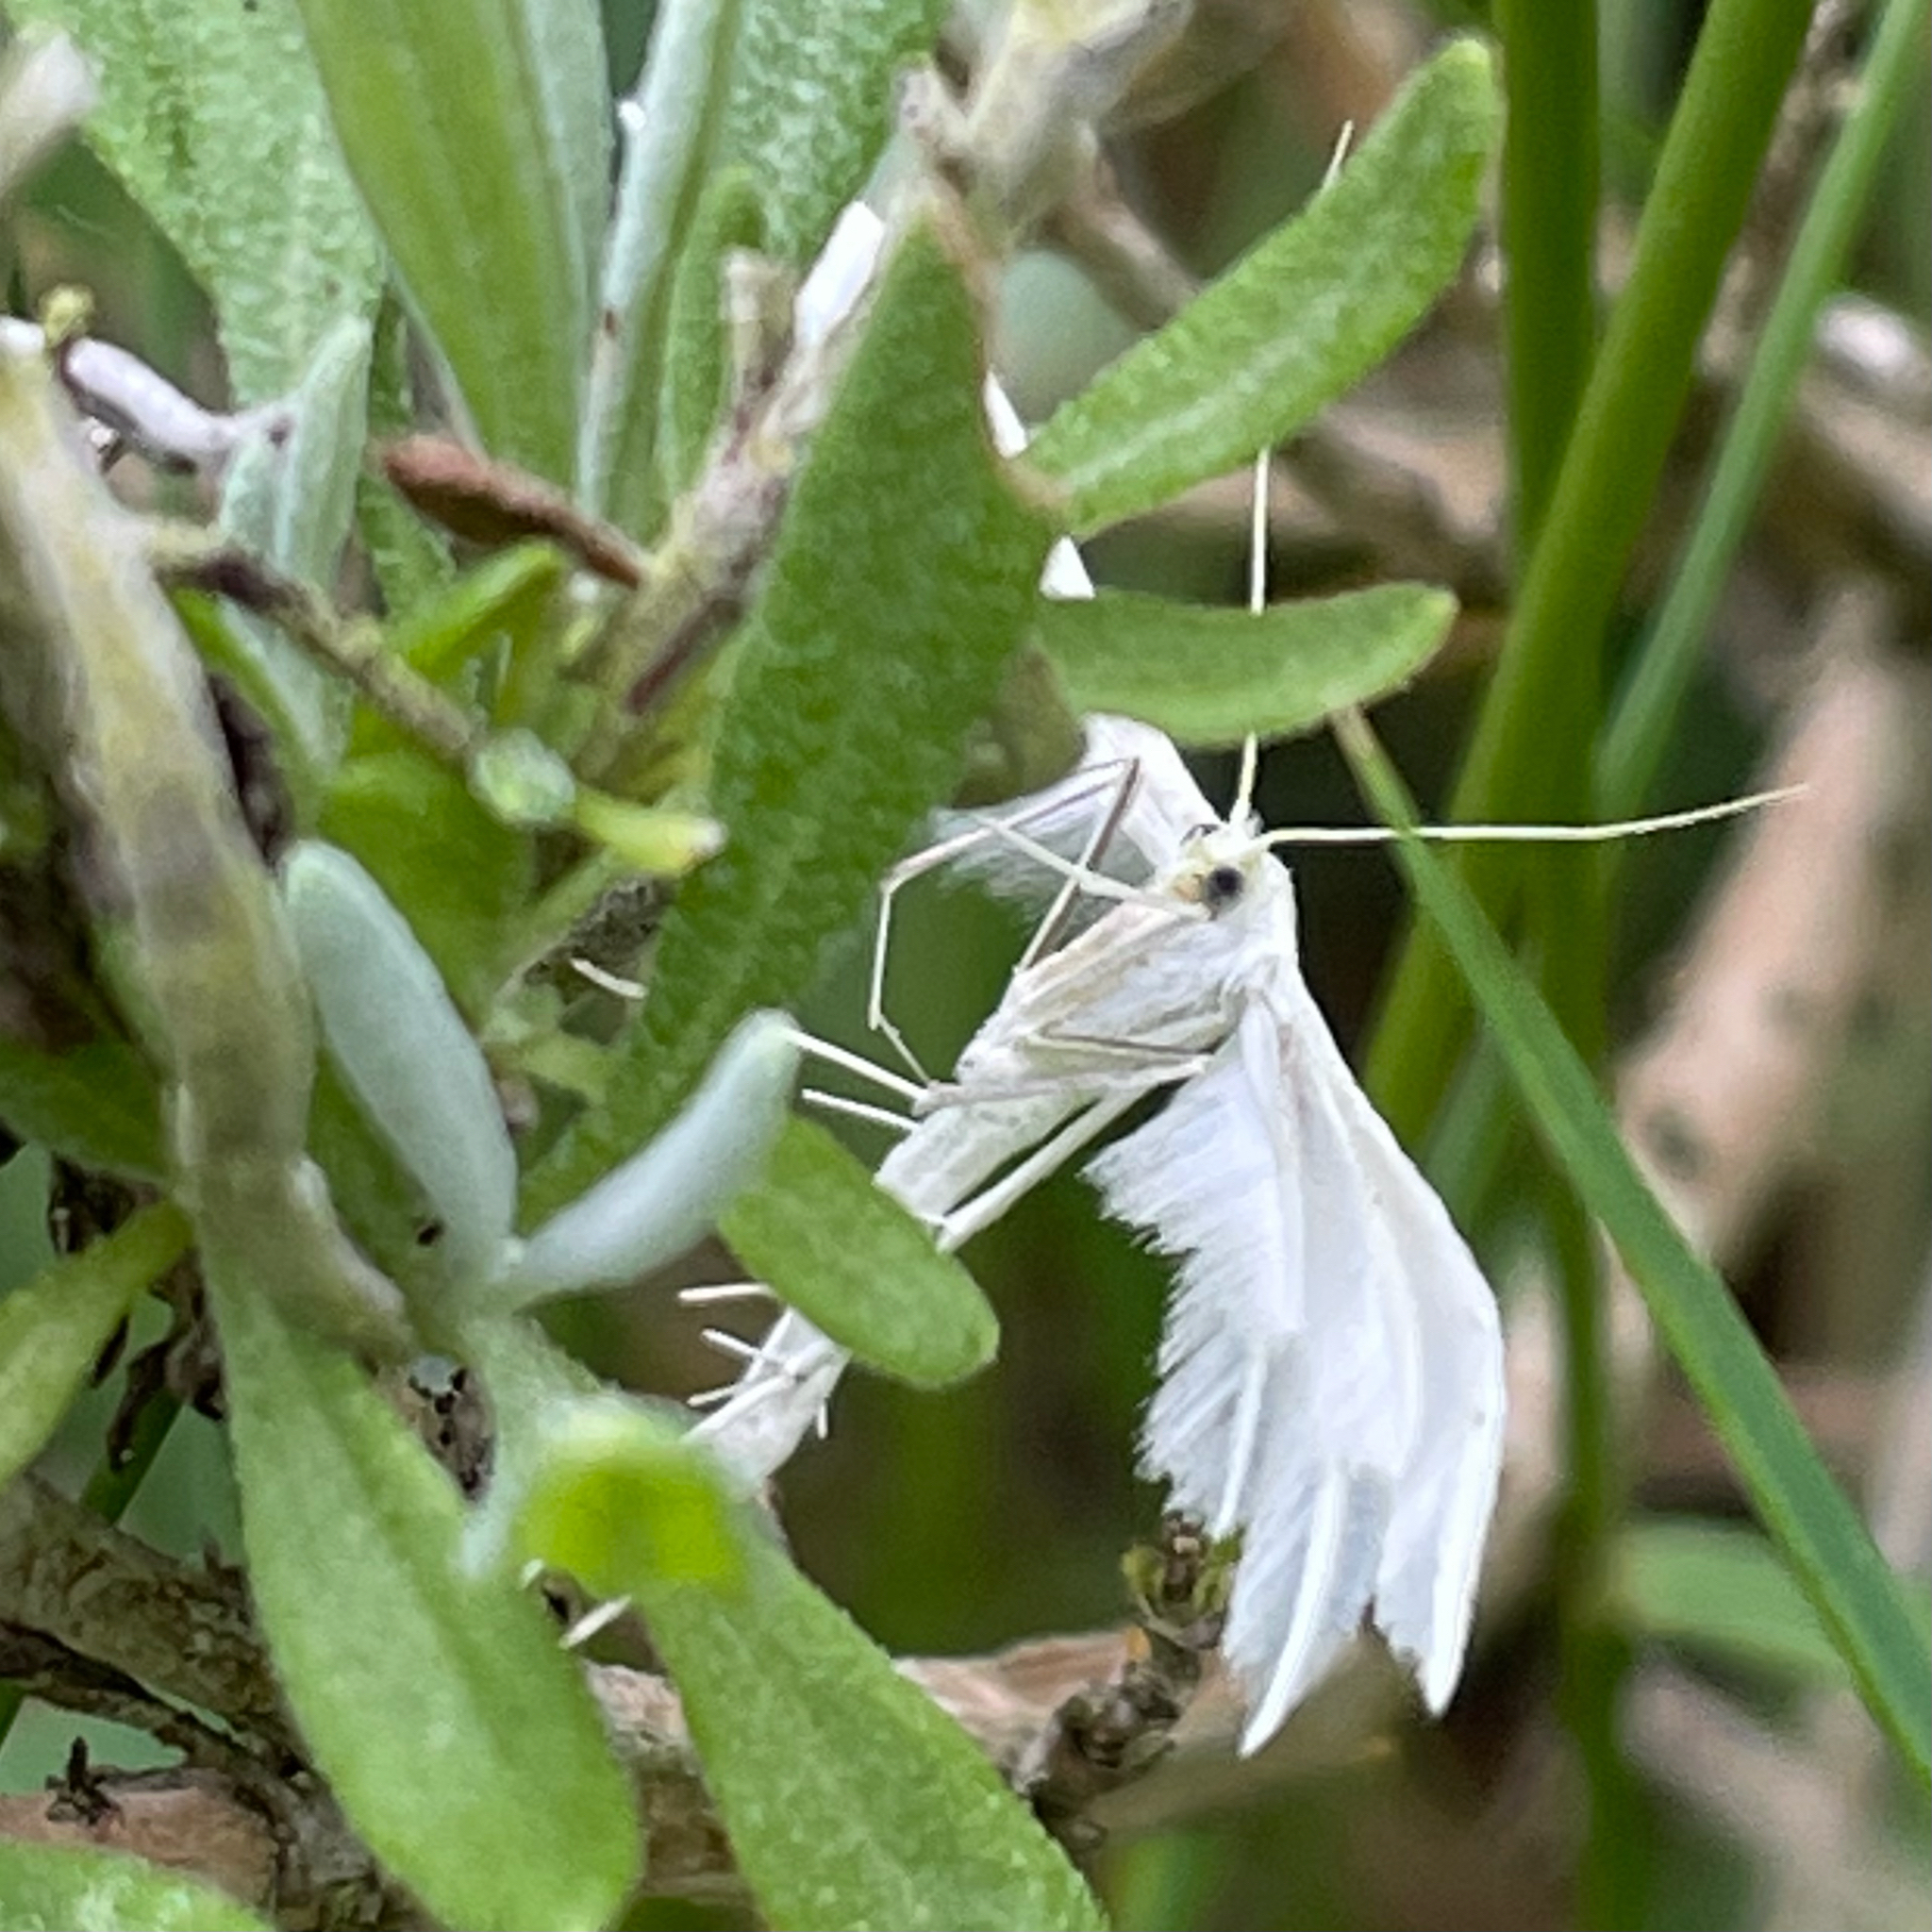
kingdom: Animalia
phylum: Arthropoda
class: Insecta
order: Lepidoptera
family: Pterophoridae
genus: Pterophorus
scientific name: Pterophorus pentadactyla
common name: White plume moth
